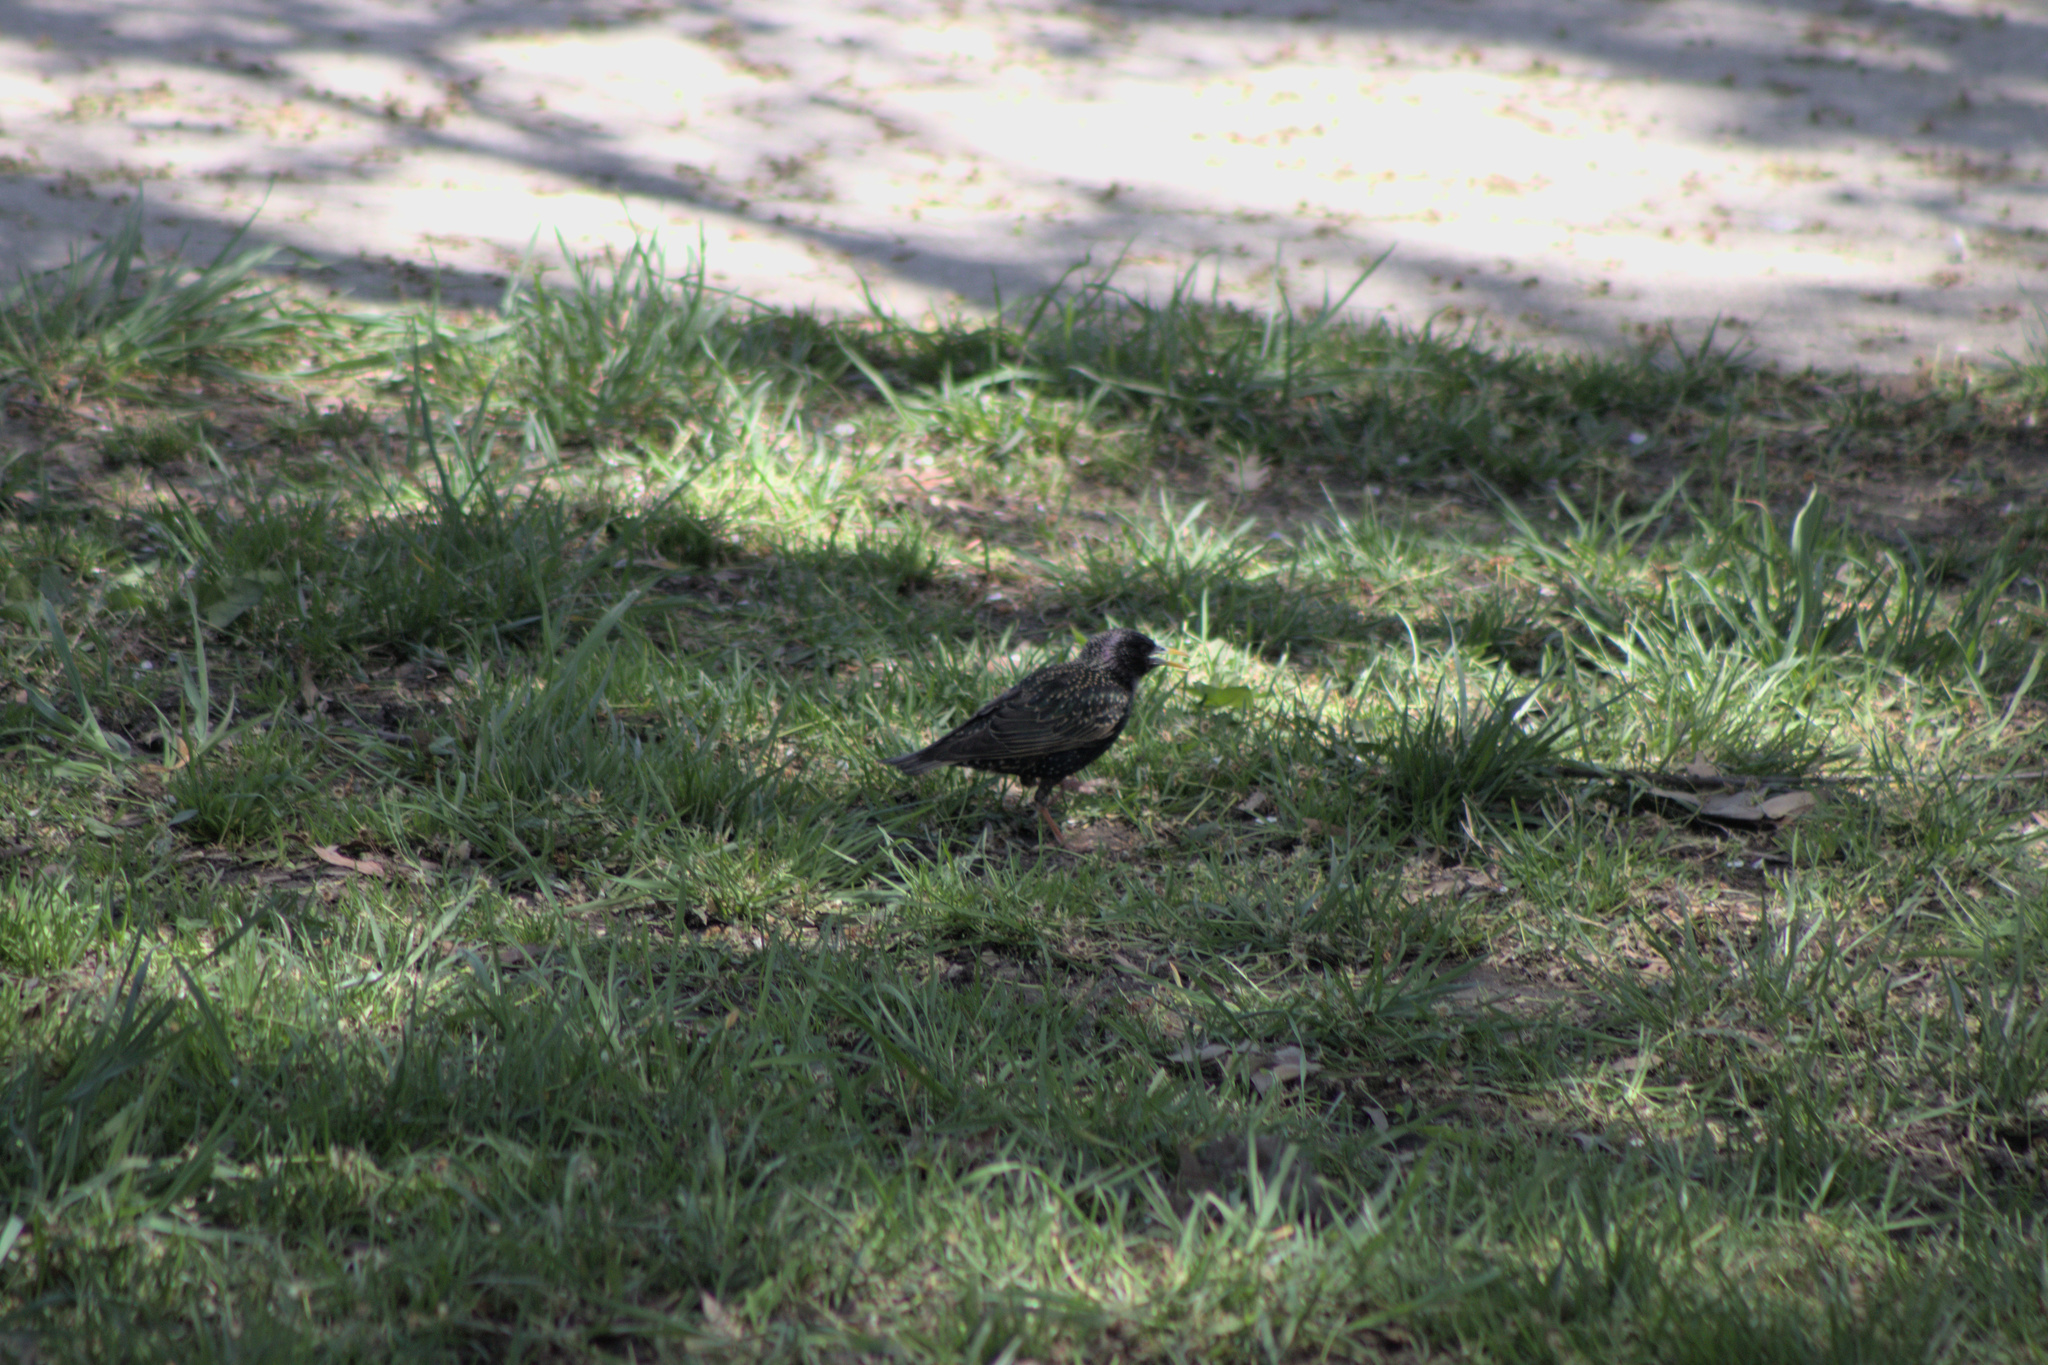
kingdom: Animalia
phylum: Chordata
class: Aves
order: Passeriformes
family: Sturnidae
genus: Sturnus
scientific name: Sturnus vulgaris
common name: Common starling
